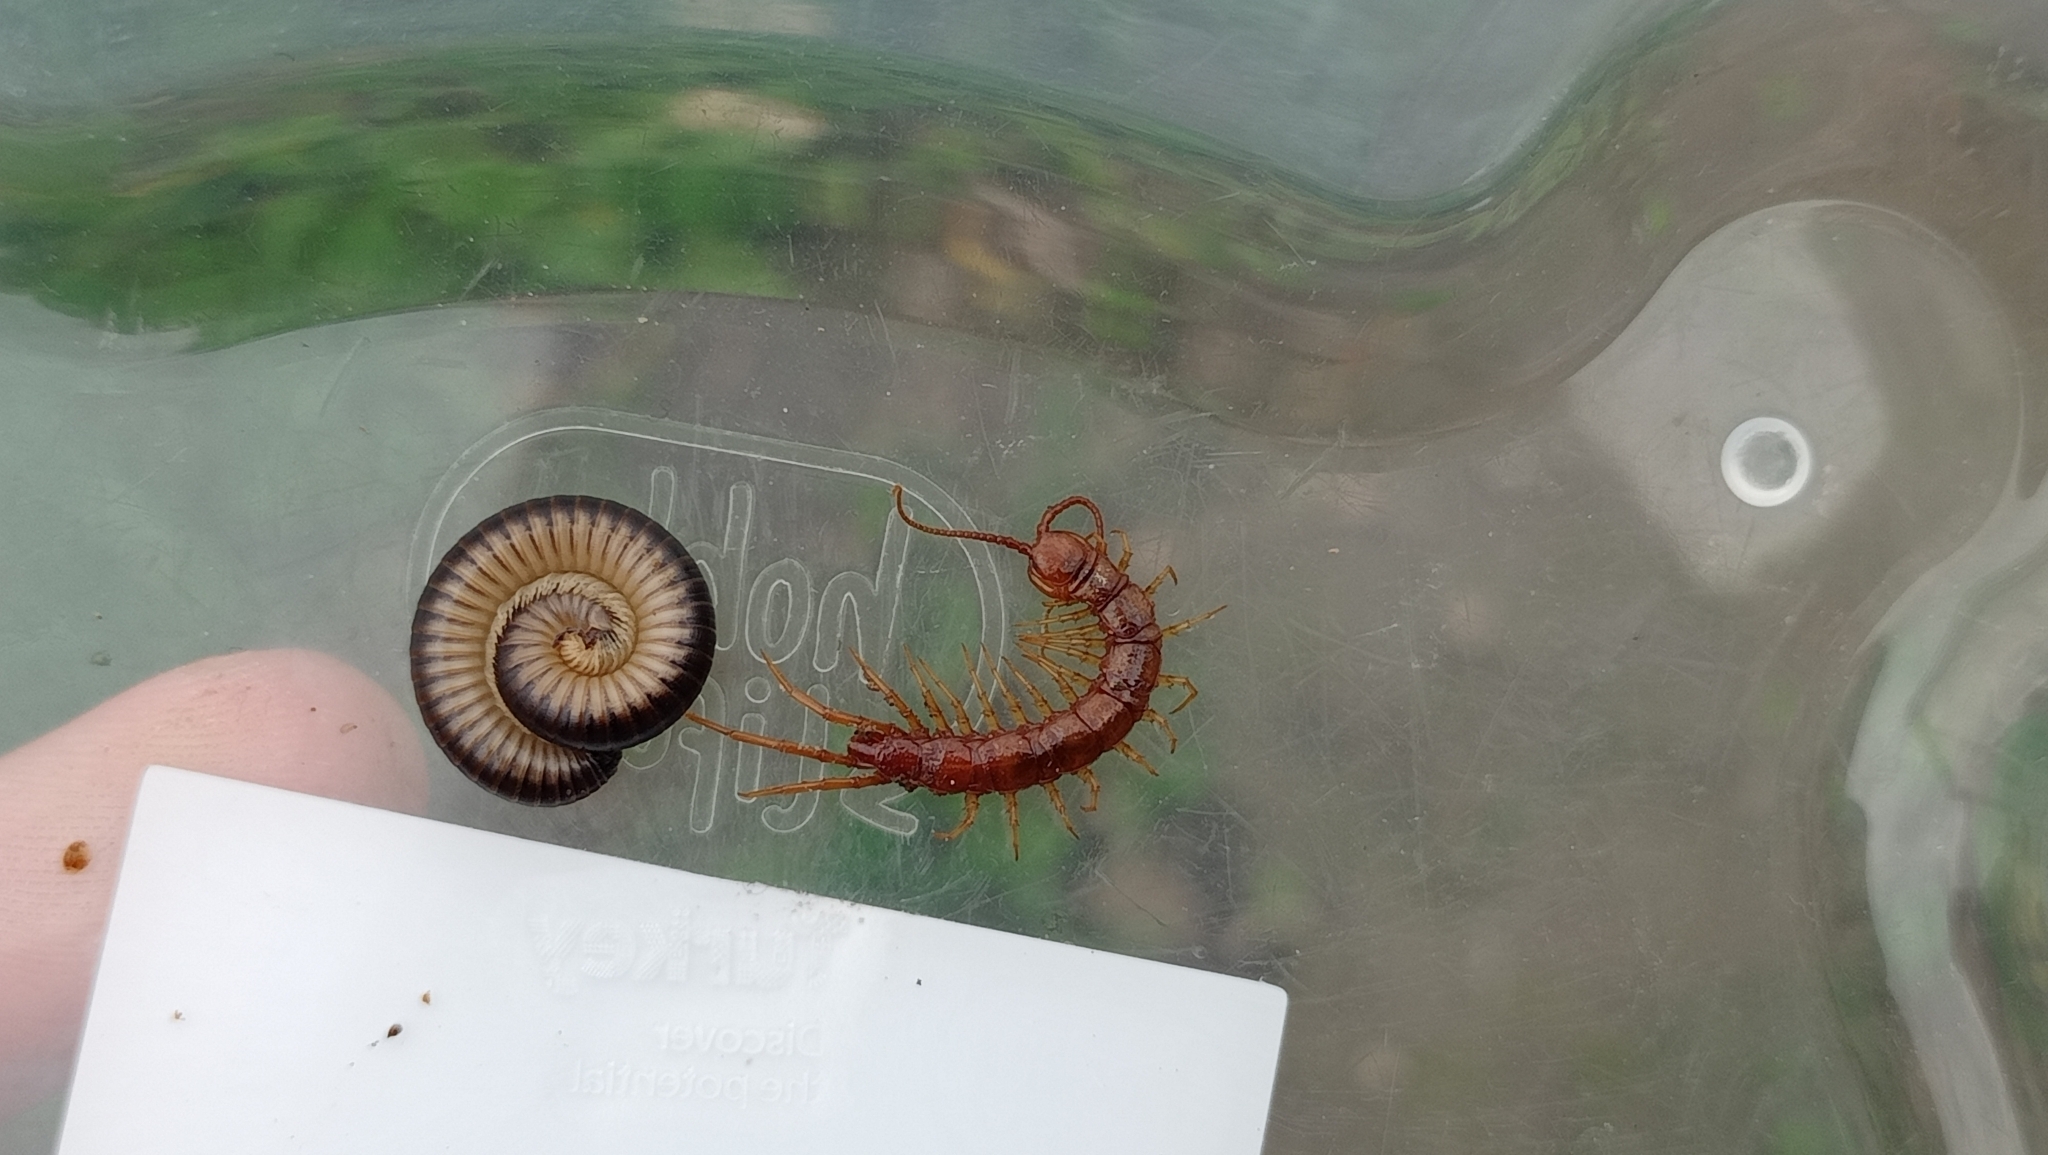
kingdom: Animalia
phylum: Arthropoda
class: Diplopoda
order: Julida
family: Julidae
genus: Pachyiulus
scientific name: Pachyiulus flavipes
